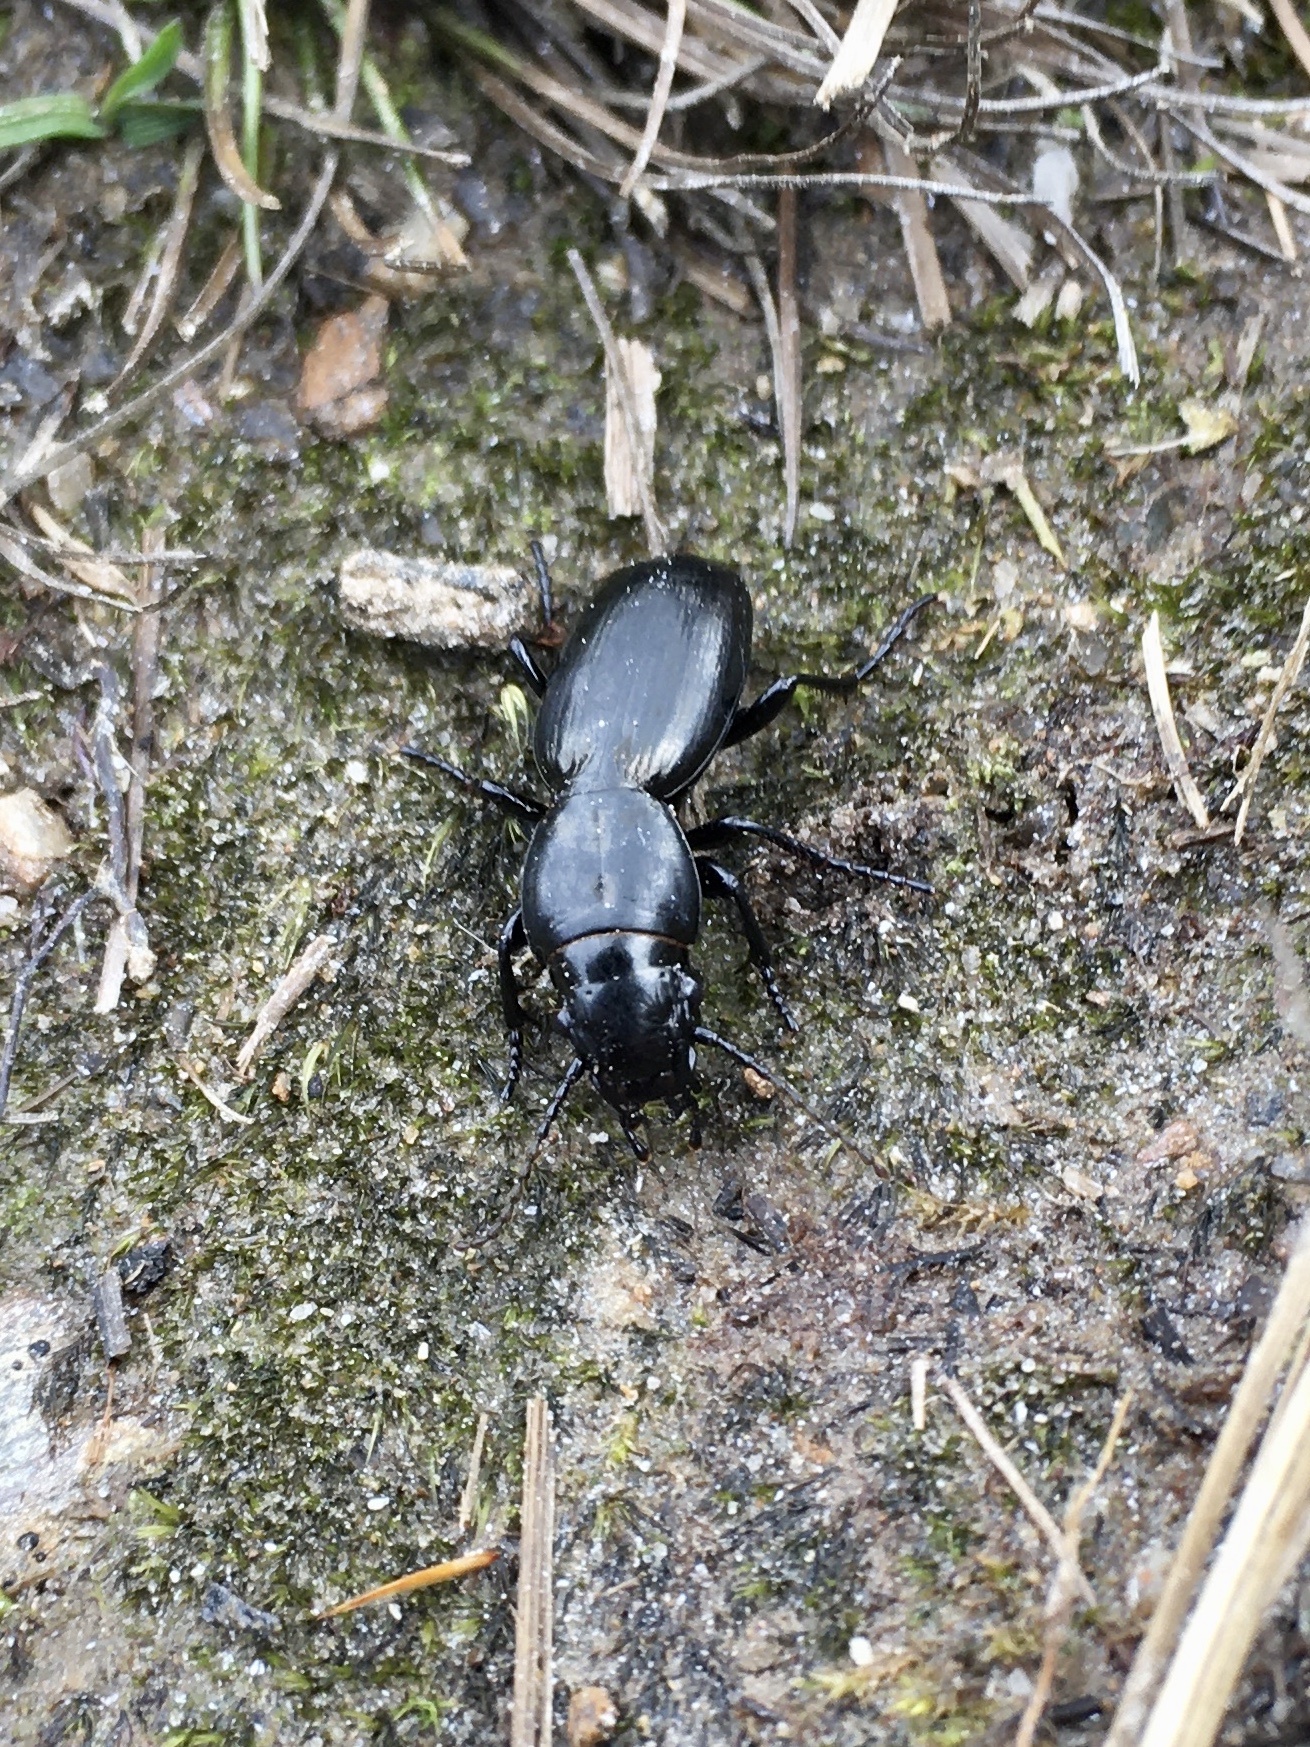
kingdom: Animalia
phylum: Arthropoda
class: Insecta
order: Coleoptera
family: Carabidae
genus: Oregus
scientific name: Oregus aereus
